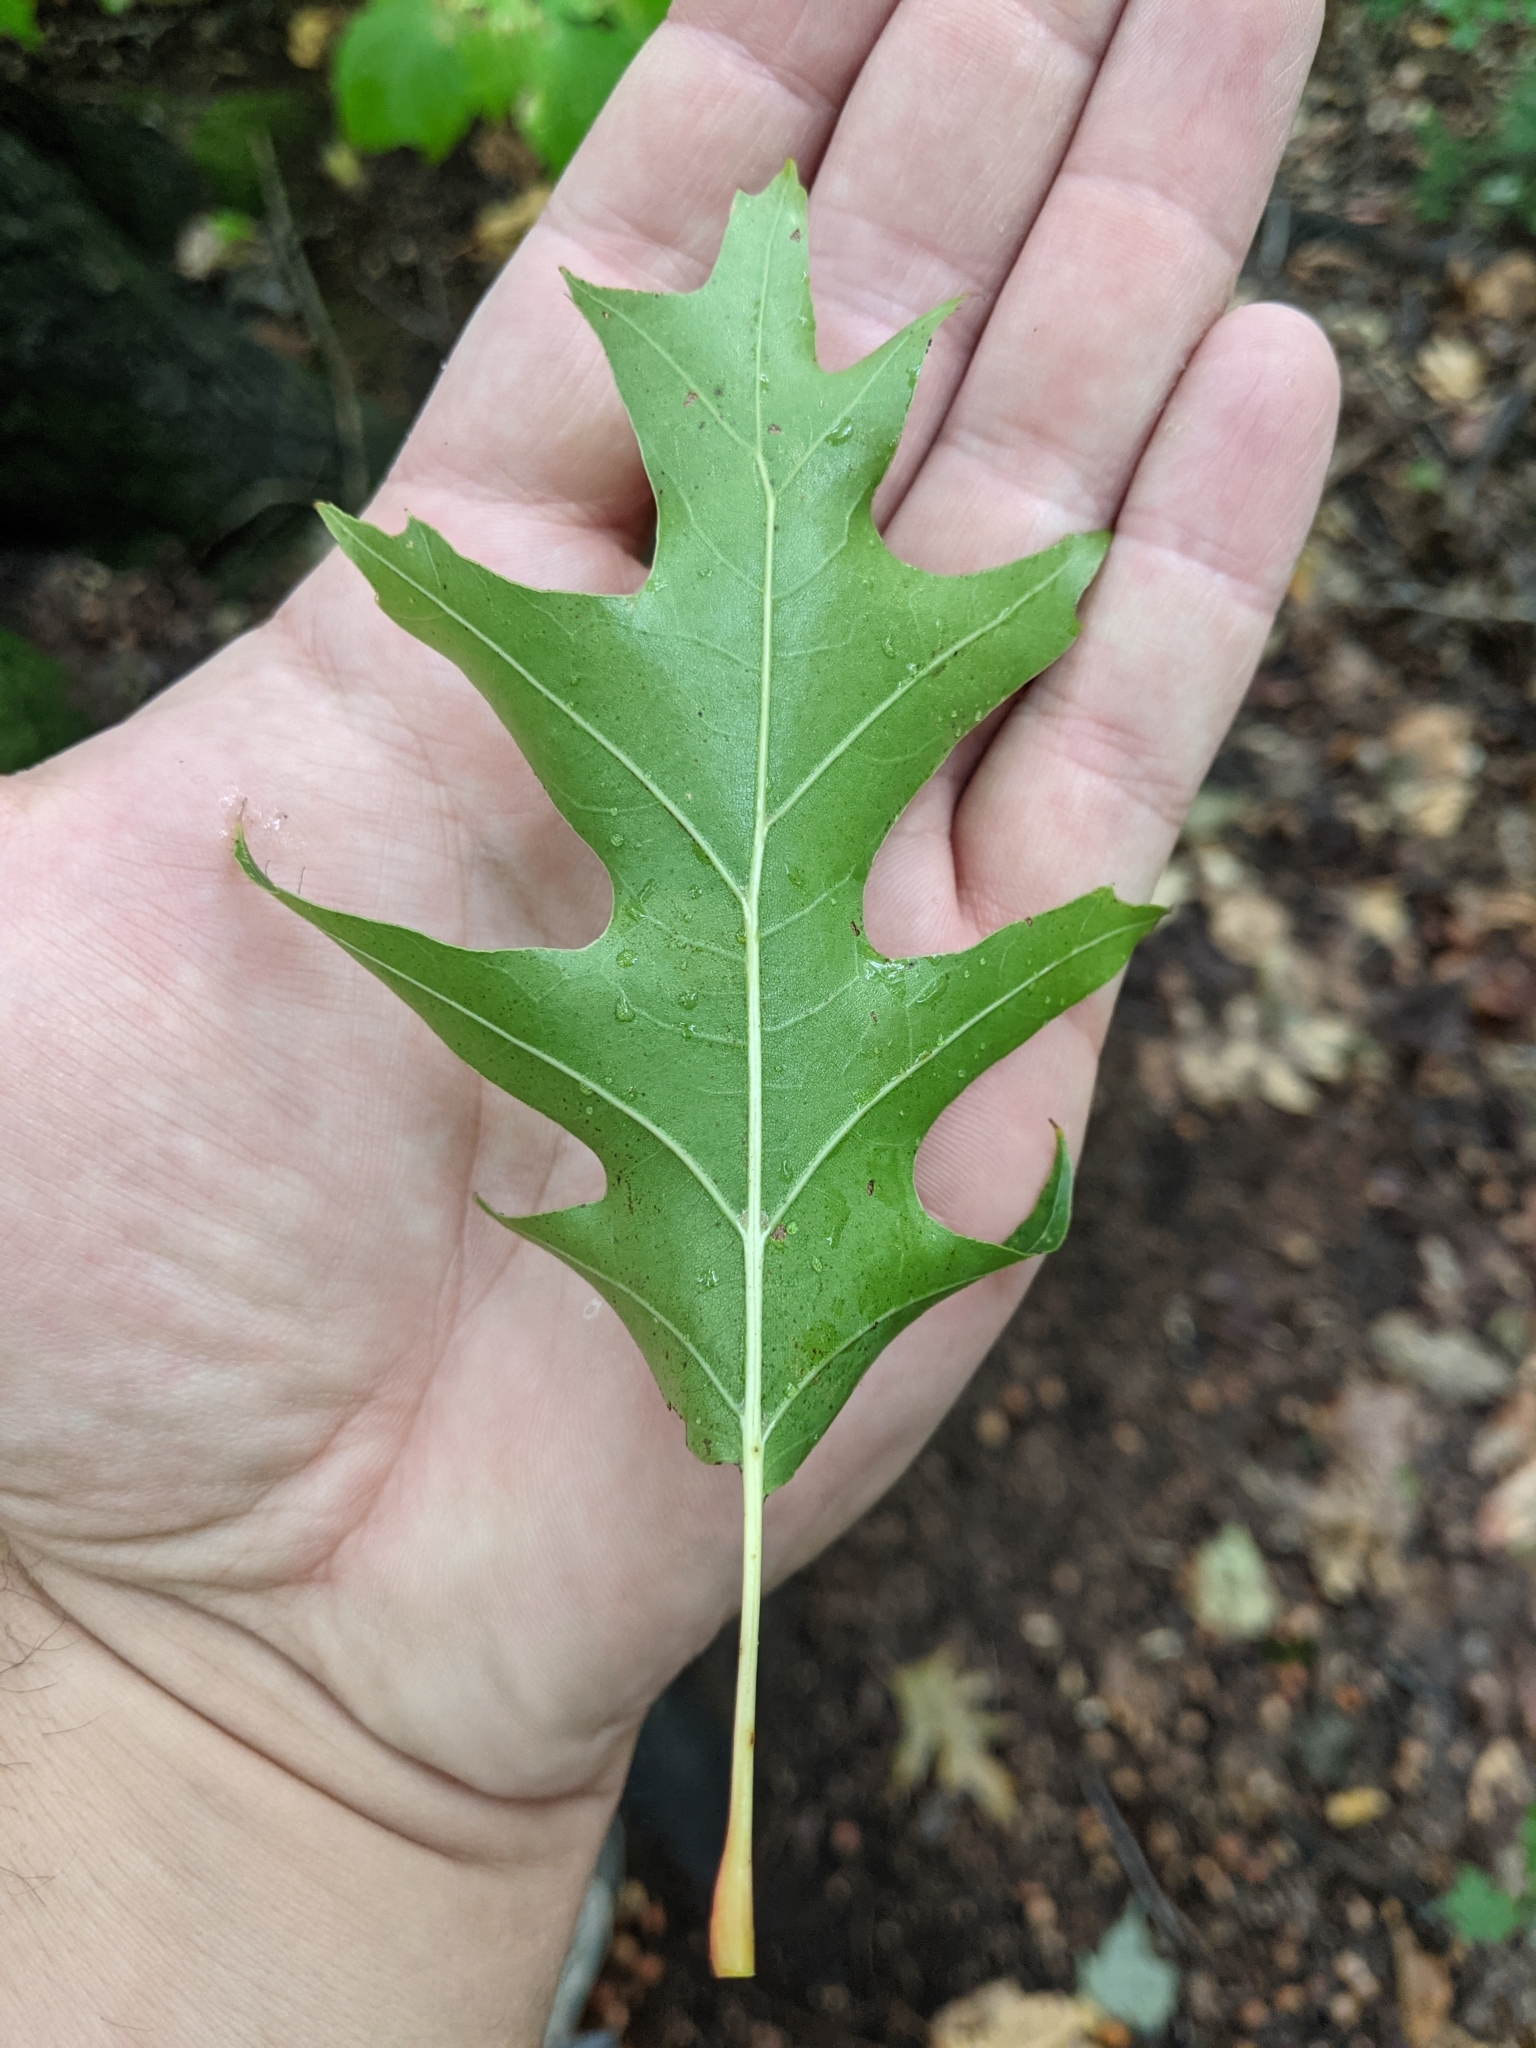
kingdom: Plantae
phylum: Tracheophyta
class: Magnoliopsida
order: Fagales
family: Fagaceae
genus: Quercus
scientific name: Quercus rubra
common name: Red oak
